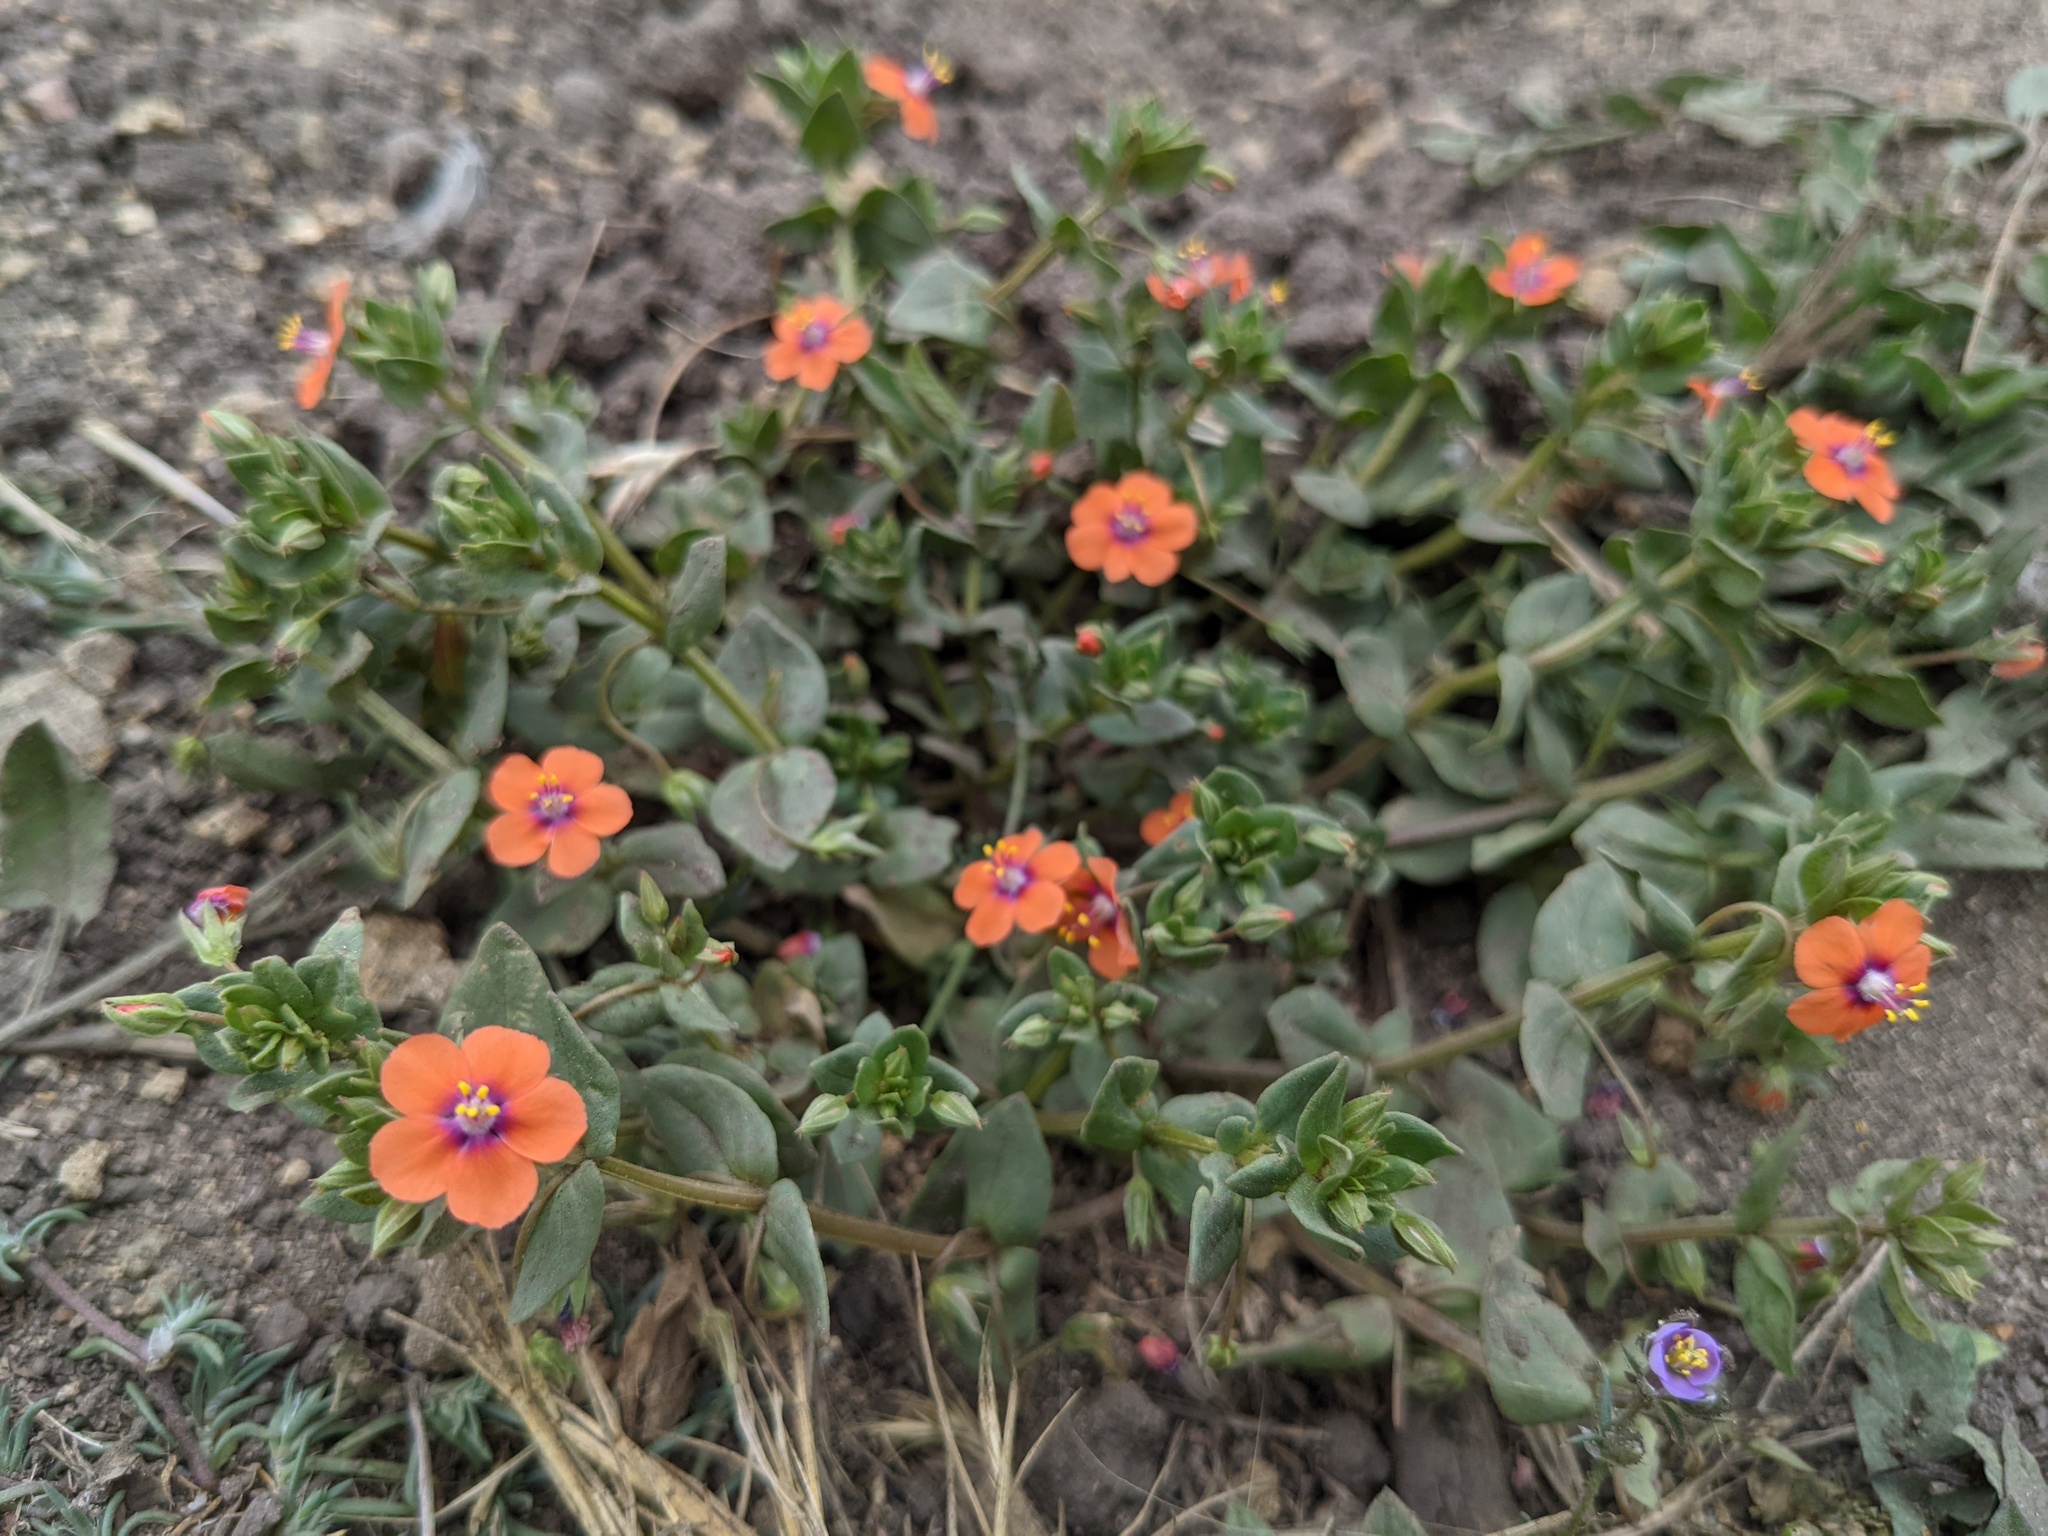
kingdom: Plantae
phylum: Tracheophyta
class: Magnoliopsida
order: Ericales
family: Primulaceae
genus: Lysimachia
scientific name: Lysimachia arvensis
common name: Scarlet pimpernel
